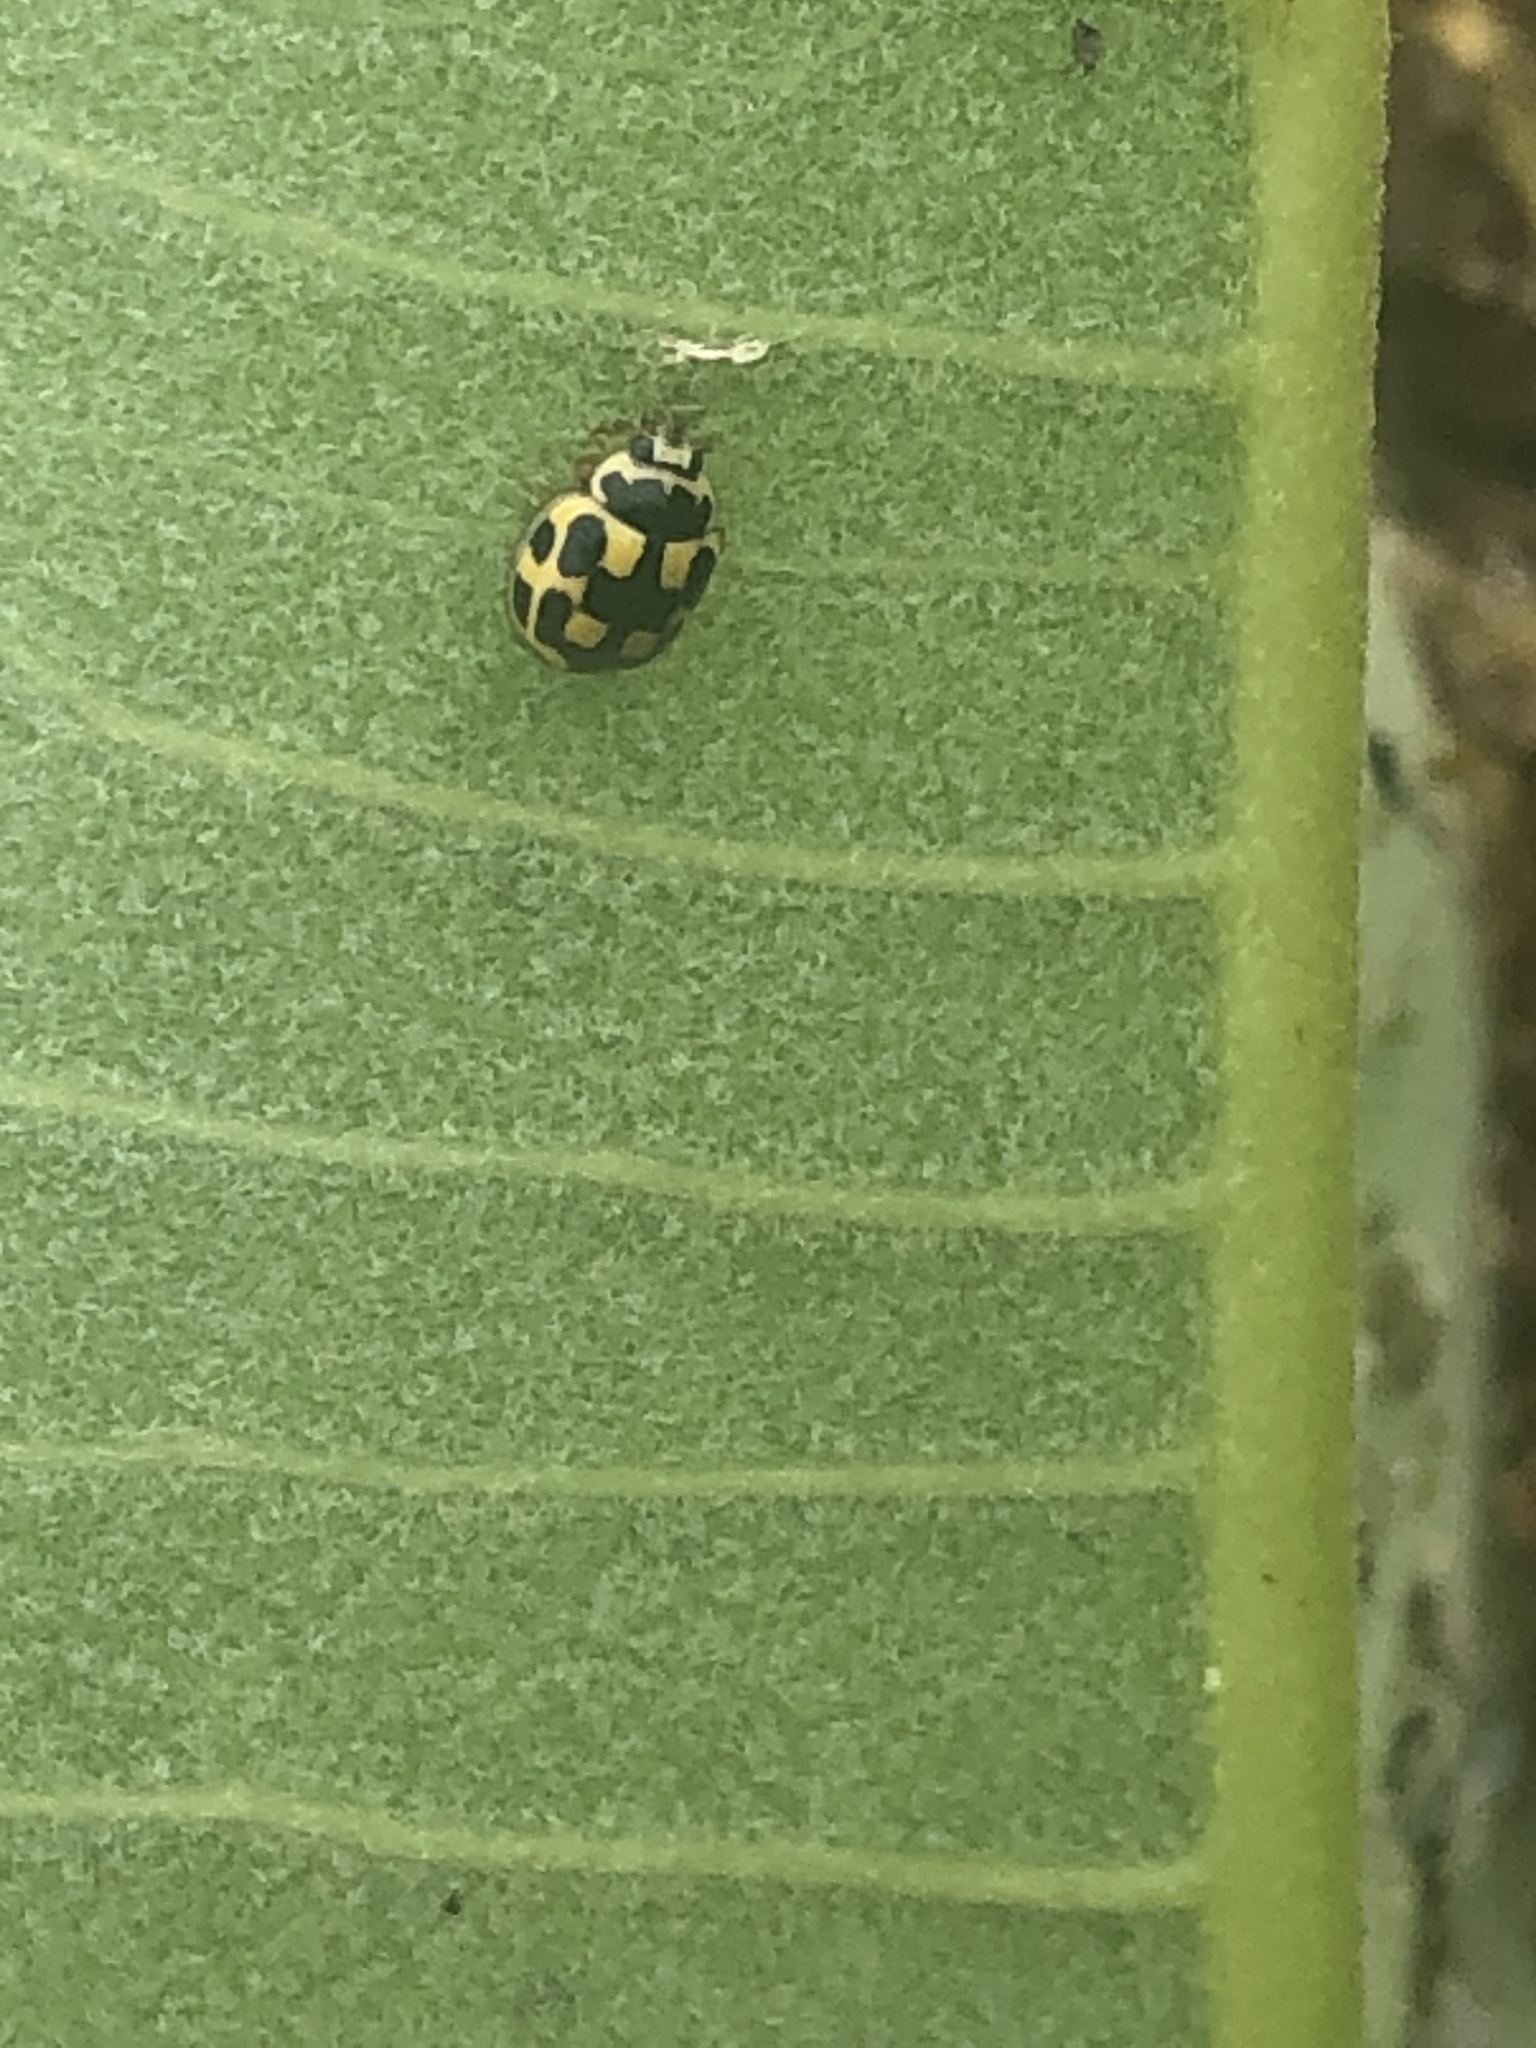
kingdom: Animalia
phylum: Arthropoda
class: Insecta
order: Coleoptera
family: Coccinellidae
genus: Propylaea
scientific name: Propylaea quatuordecimpunctata
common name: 14-spotted ladybird beetle
